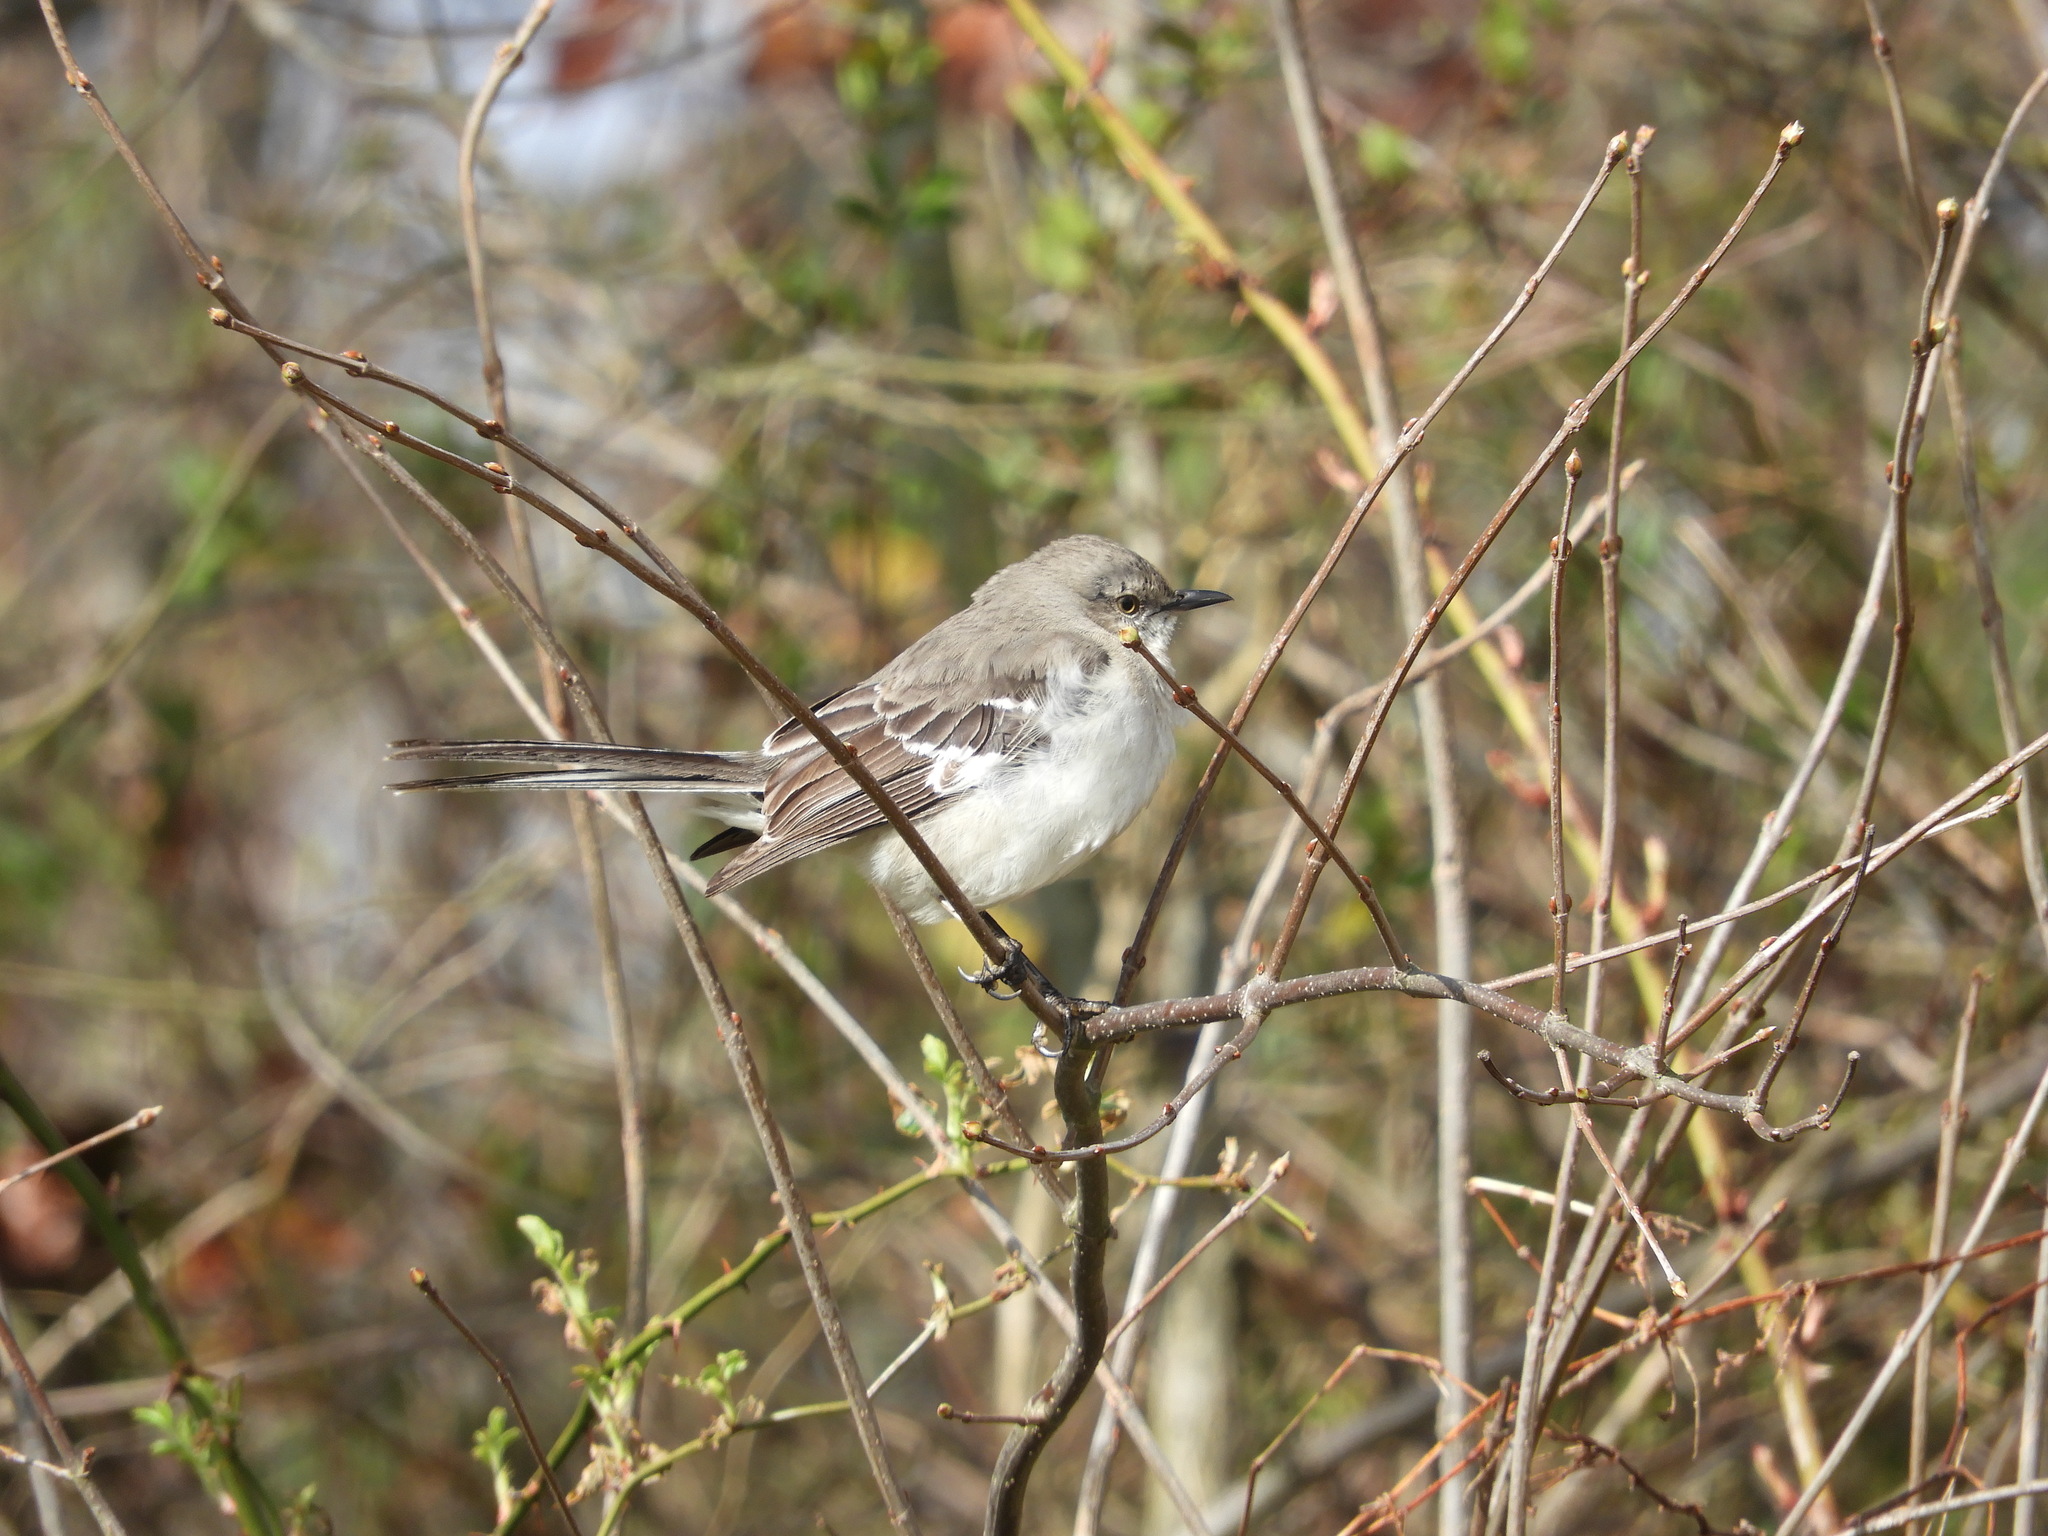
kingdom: Animalia
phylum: Chordata
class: Aves
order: Passeriformes
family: Mimidae
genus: Mimus
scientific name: Mimus polyglottos
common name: Northern mockingbird
